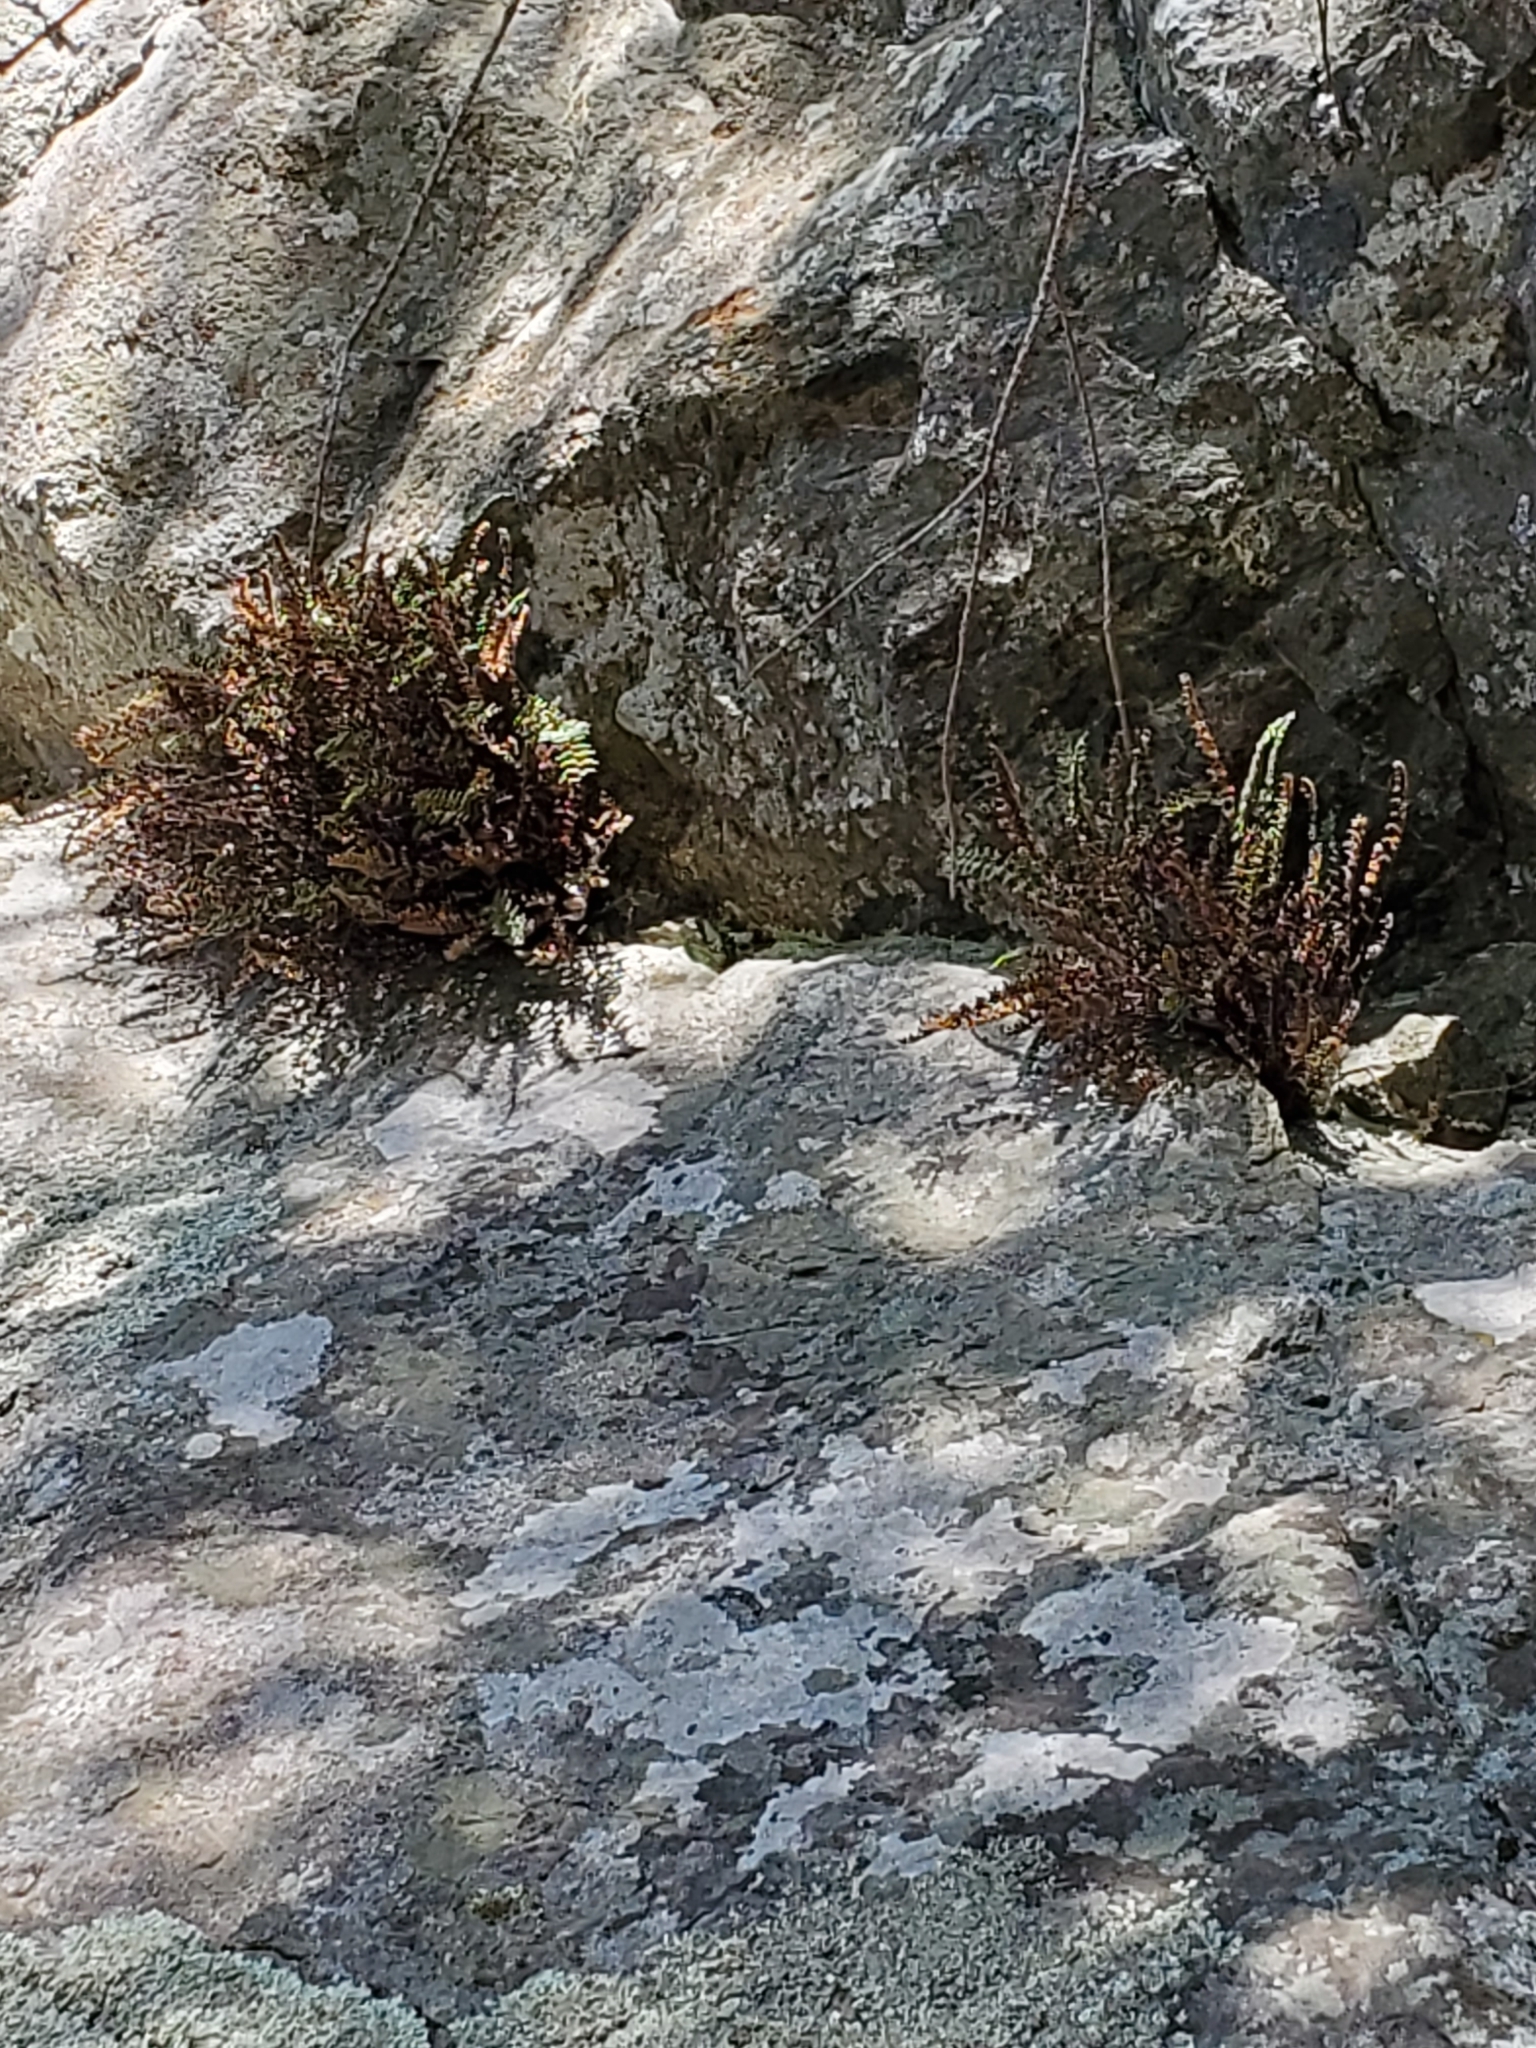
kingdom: Plantae
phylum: Tracheophyta
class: Polypodiopsida
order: Polypodiales
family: Pteridaceae
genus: Myriopteris
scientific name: Myriopteris gracillima
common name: Lace fern
